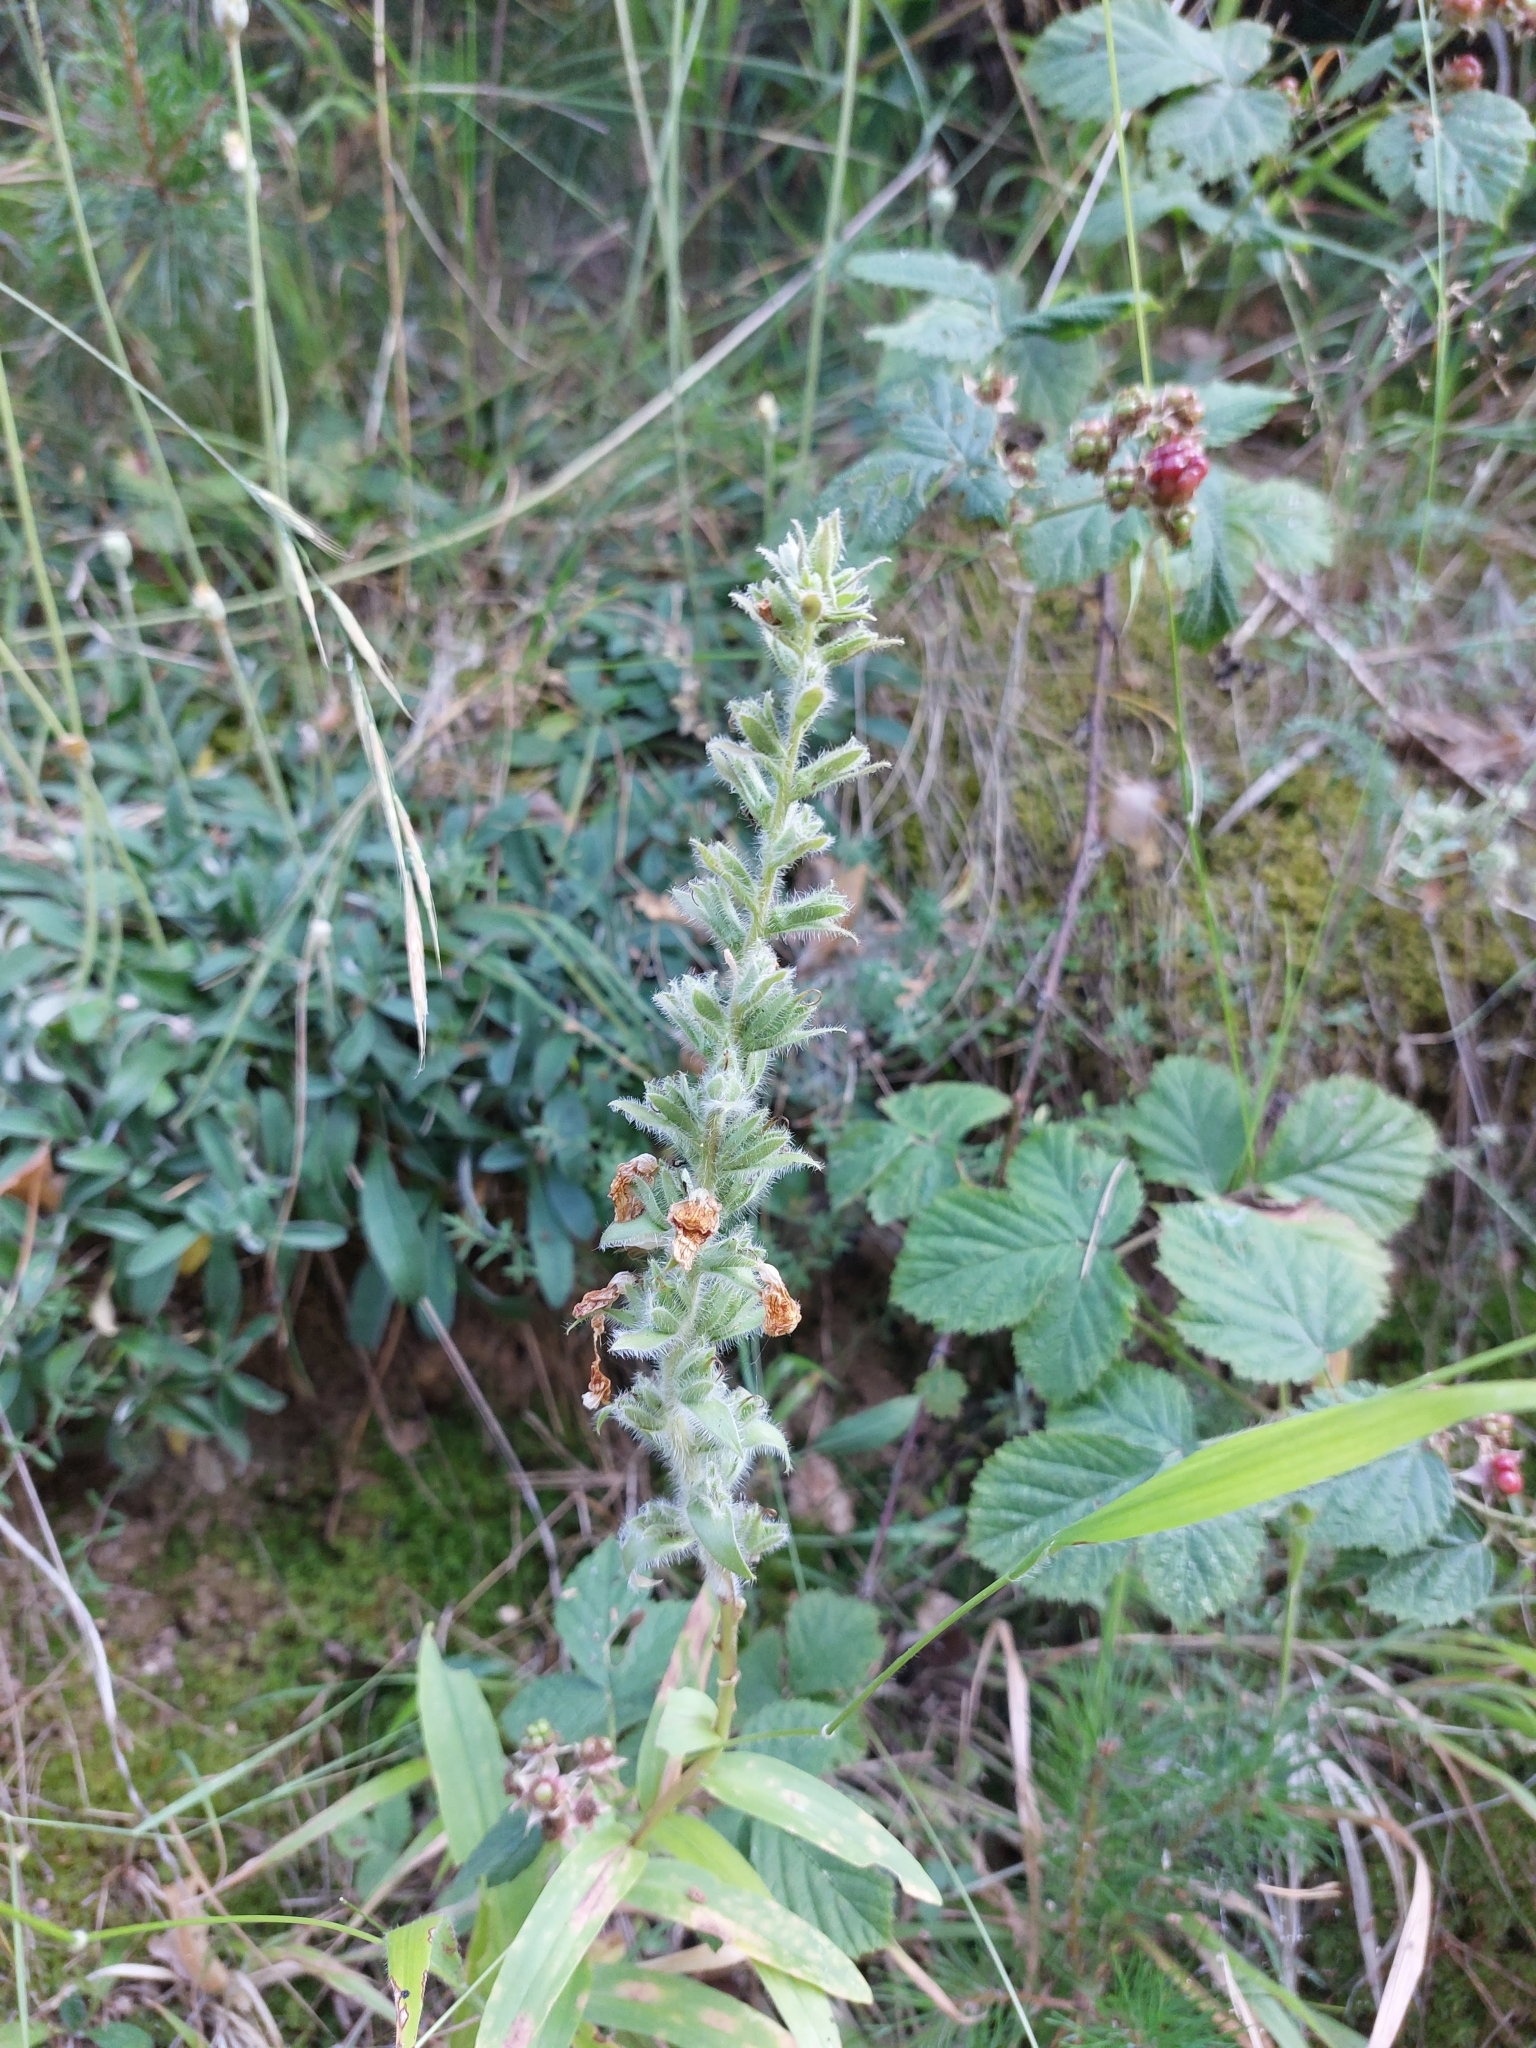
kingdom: Plantae
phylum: Tracheophyta
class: Magnoliopsida
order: Lamiales
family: Plantaginaceae
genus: Digitalis
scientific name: Digitalis lanata
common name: Grecian foxglove
